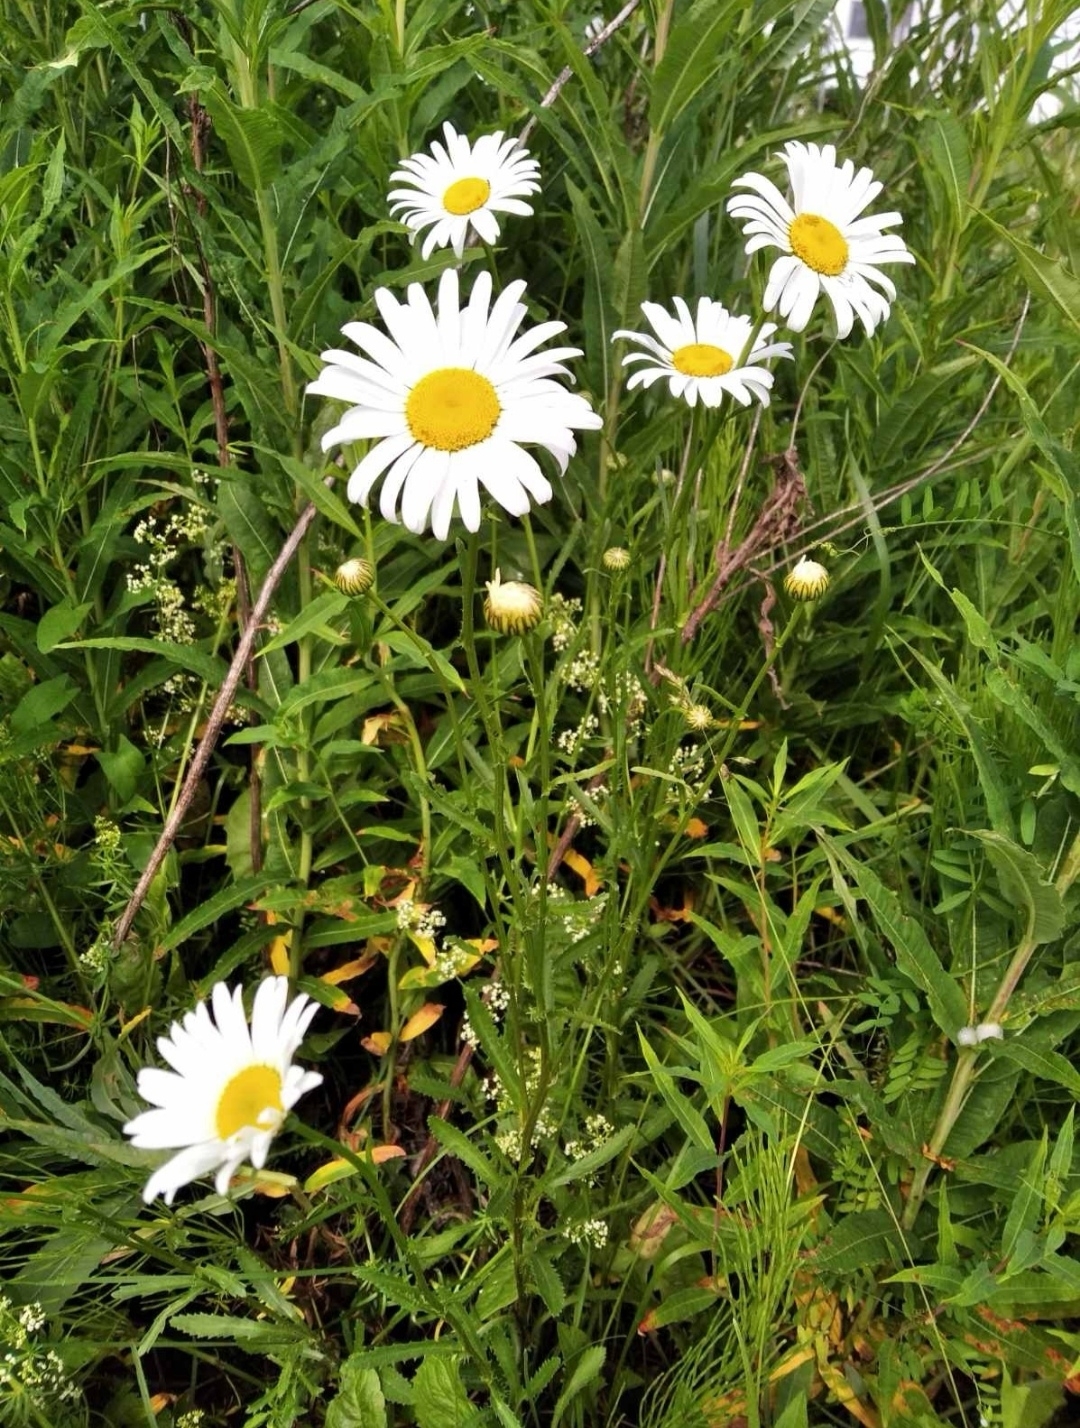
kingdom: Plantae
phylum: Tracheophyta
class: Magnoliopsida
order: Asterales
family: Asteraceae
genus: Leucanthemum
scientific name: Leucanthemum vulgare
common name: Oxeye daisy
